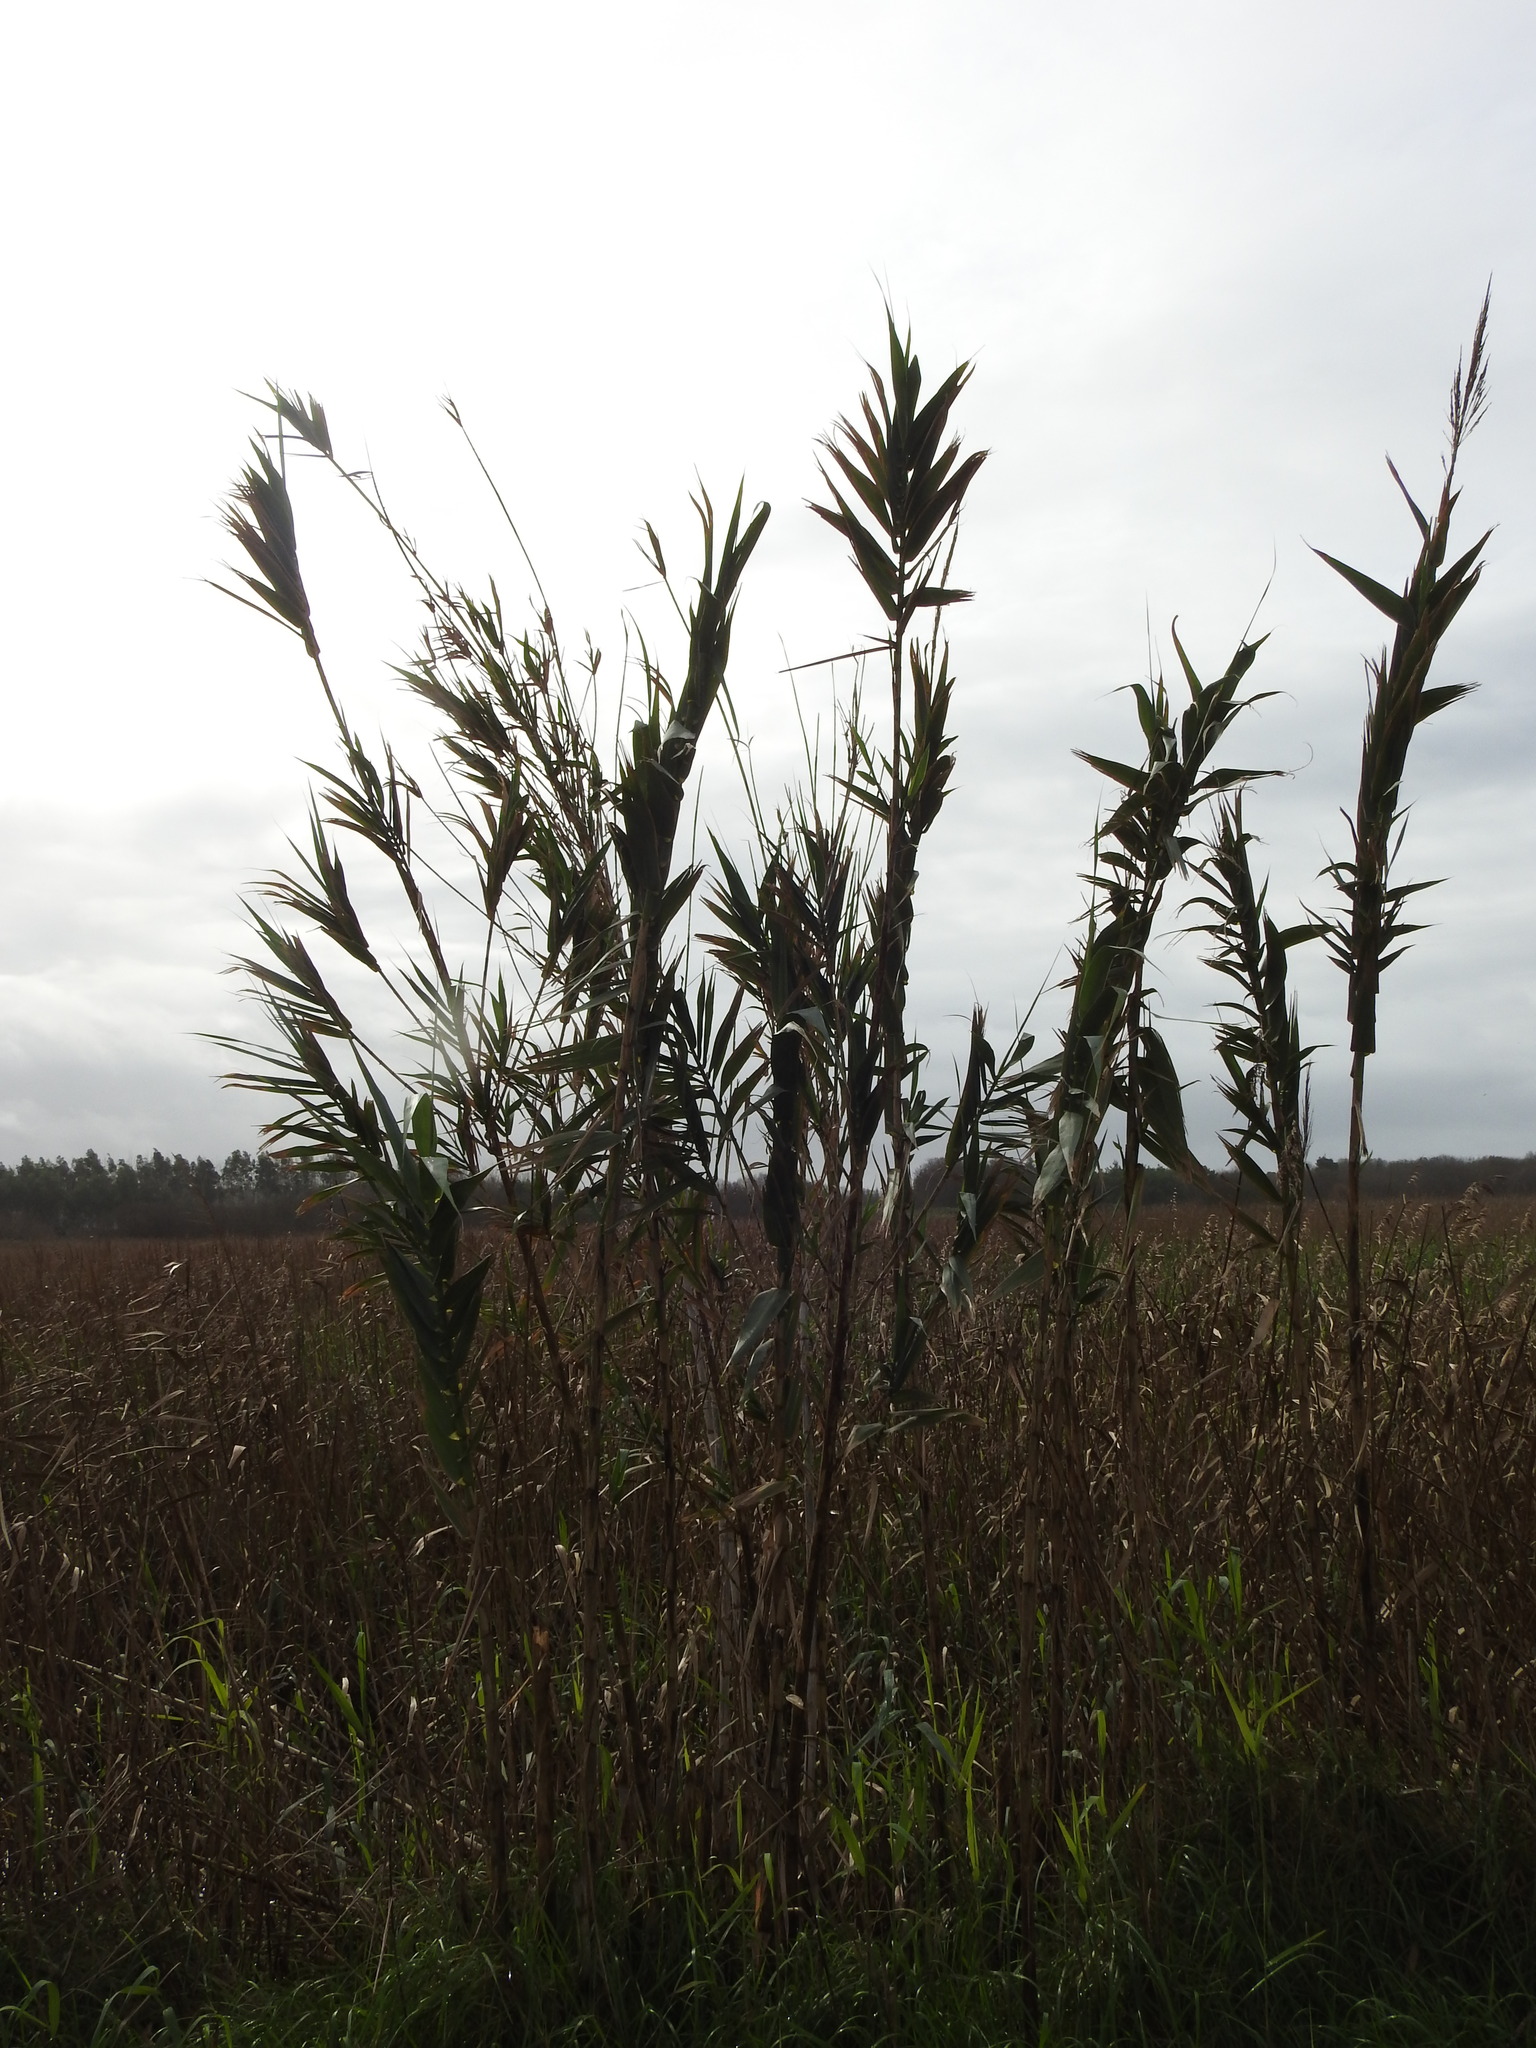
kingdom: Plantae
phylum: Tracheophyta
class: Liliopsida
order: Poales
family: Poaceae
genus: Arundo
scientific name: Arundo donax
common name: Giant reed
